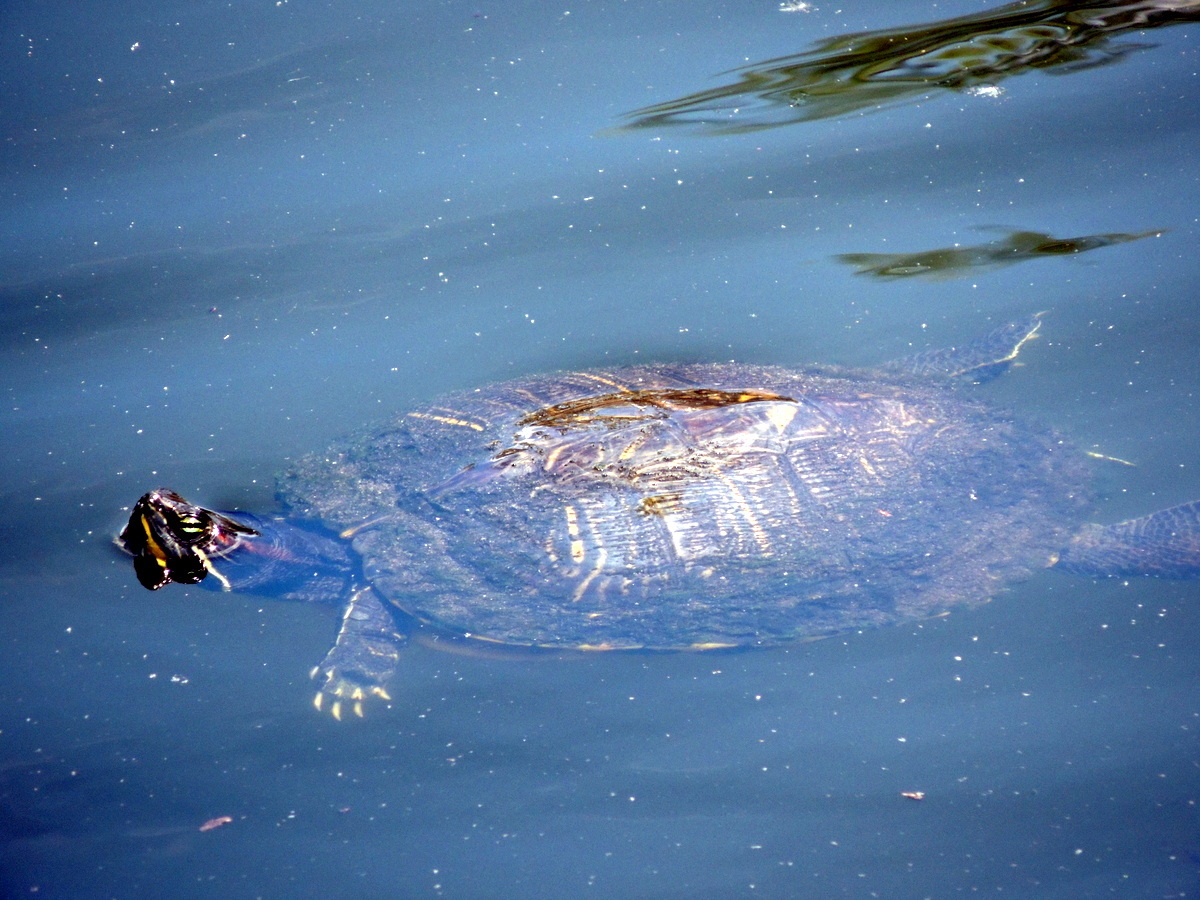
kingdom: Animalia
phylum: Chordata
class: Testudines
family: Emydidae
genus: Trachemys
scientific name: Trachemys scripta
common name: Slider
